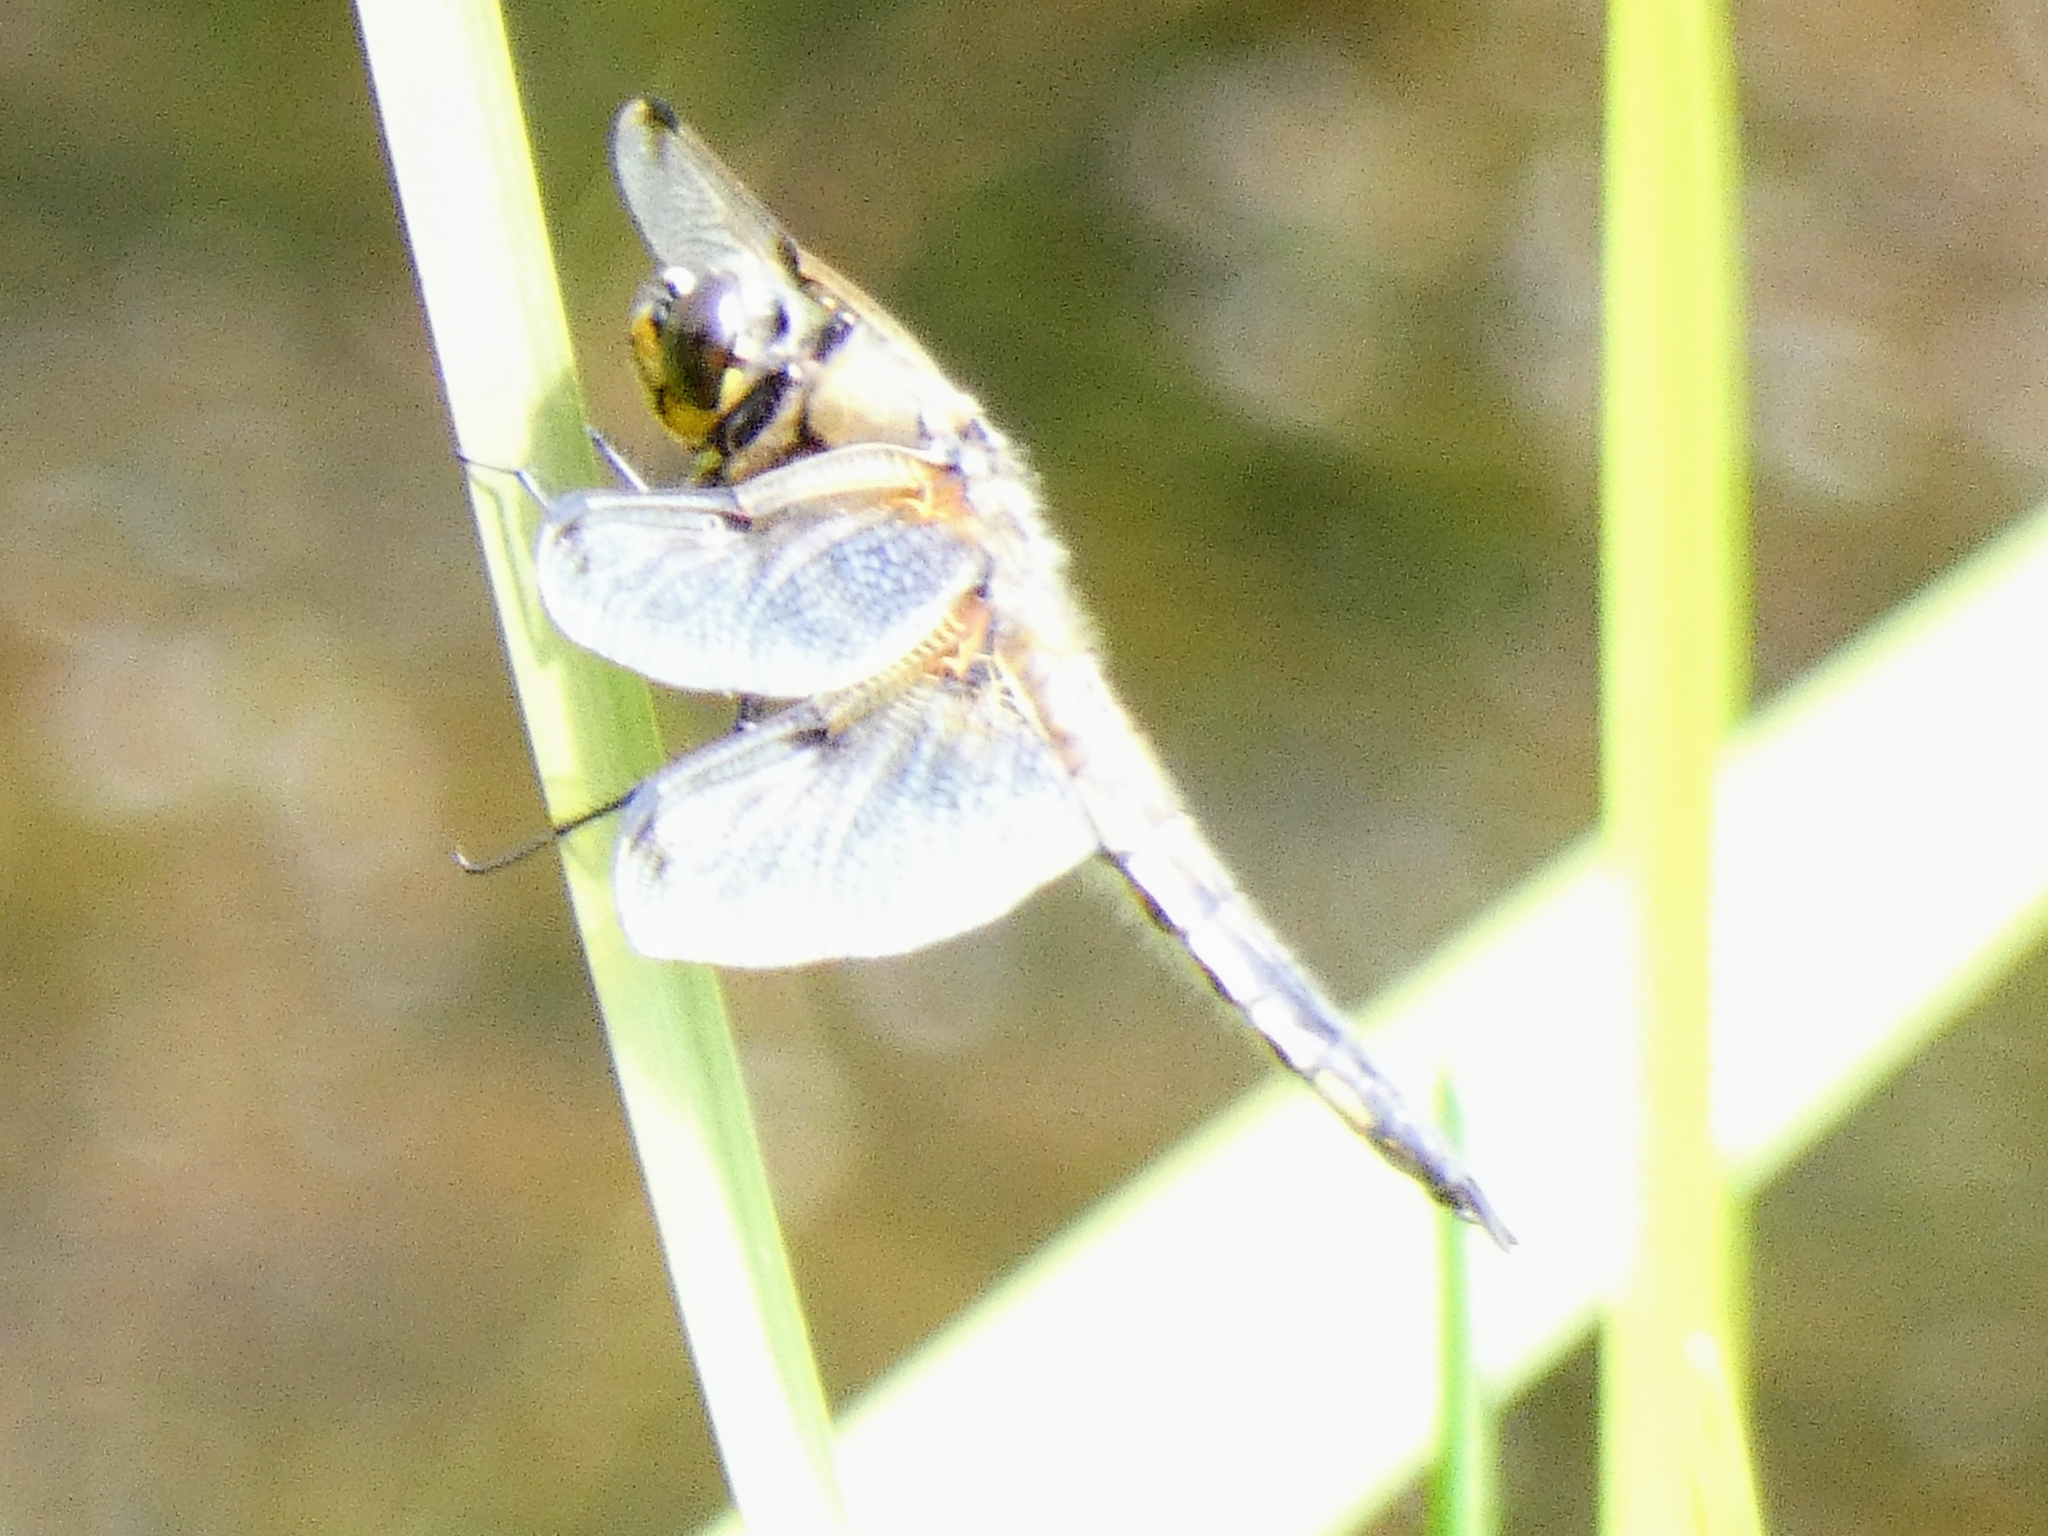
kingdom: Animalia
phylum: Arthropoda
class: Insecta
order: Odonata
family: Libellulidae
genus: Libellula
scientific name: Libellula quadrimaculata
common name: Four-spotted chaser
